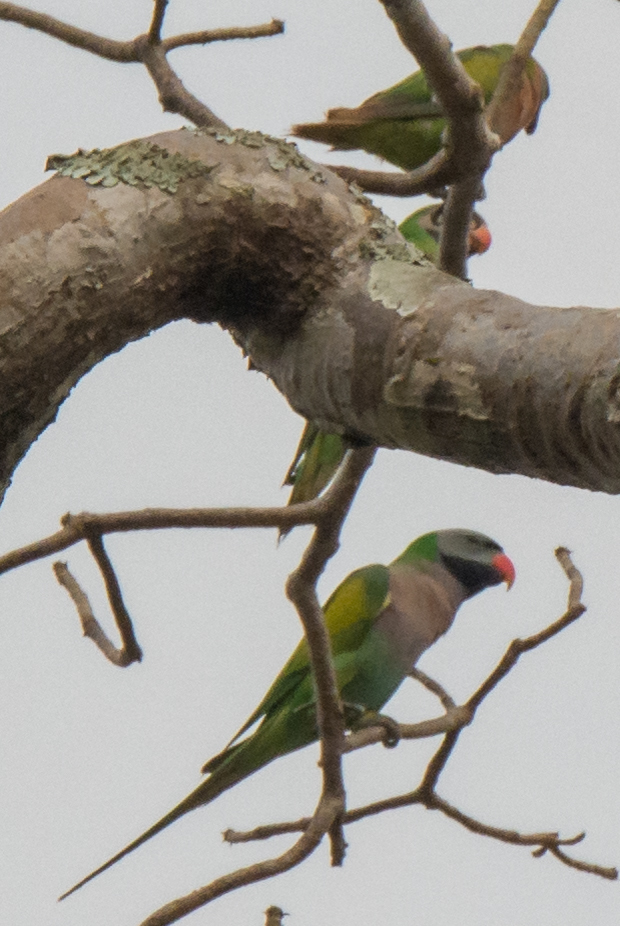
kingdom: Animalia
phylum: Chordata
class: Aves
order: Psittaciformes
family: Psittacidae
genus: Psittacula
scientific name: Psittacula alexandri
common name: Red-breasted parakeet
